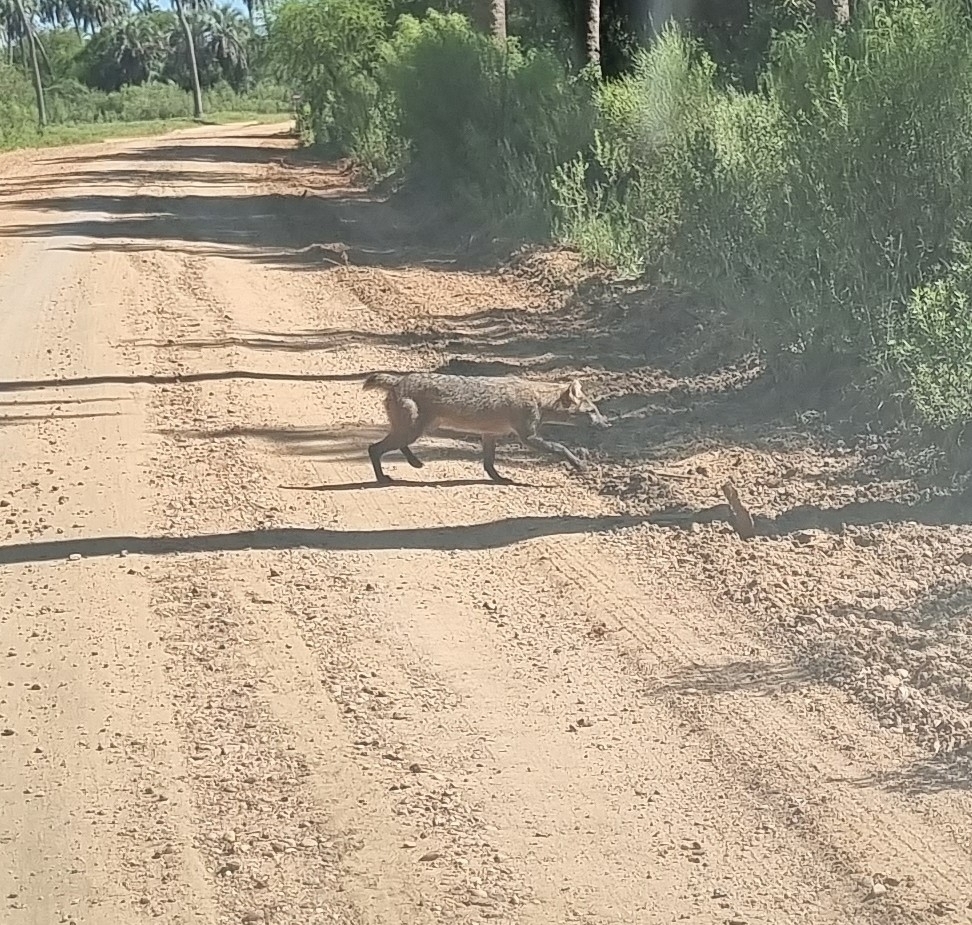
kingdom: Animalia
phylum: Chordata
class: Mammalia
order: Carnivora
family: Canidae
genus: Cerdocyon
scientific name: Cerdocyon thous
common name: Crab-eating fox
